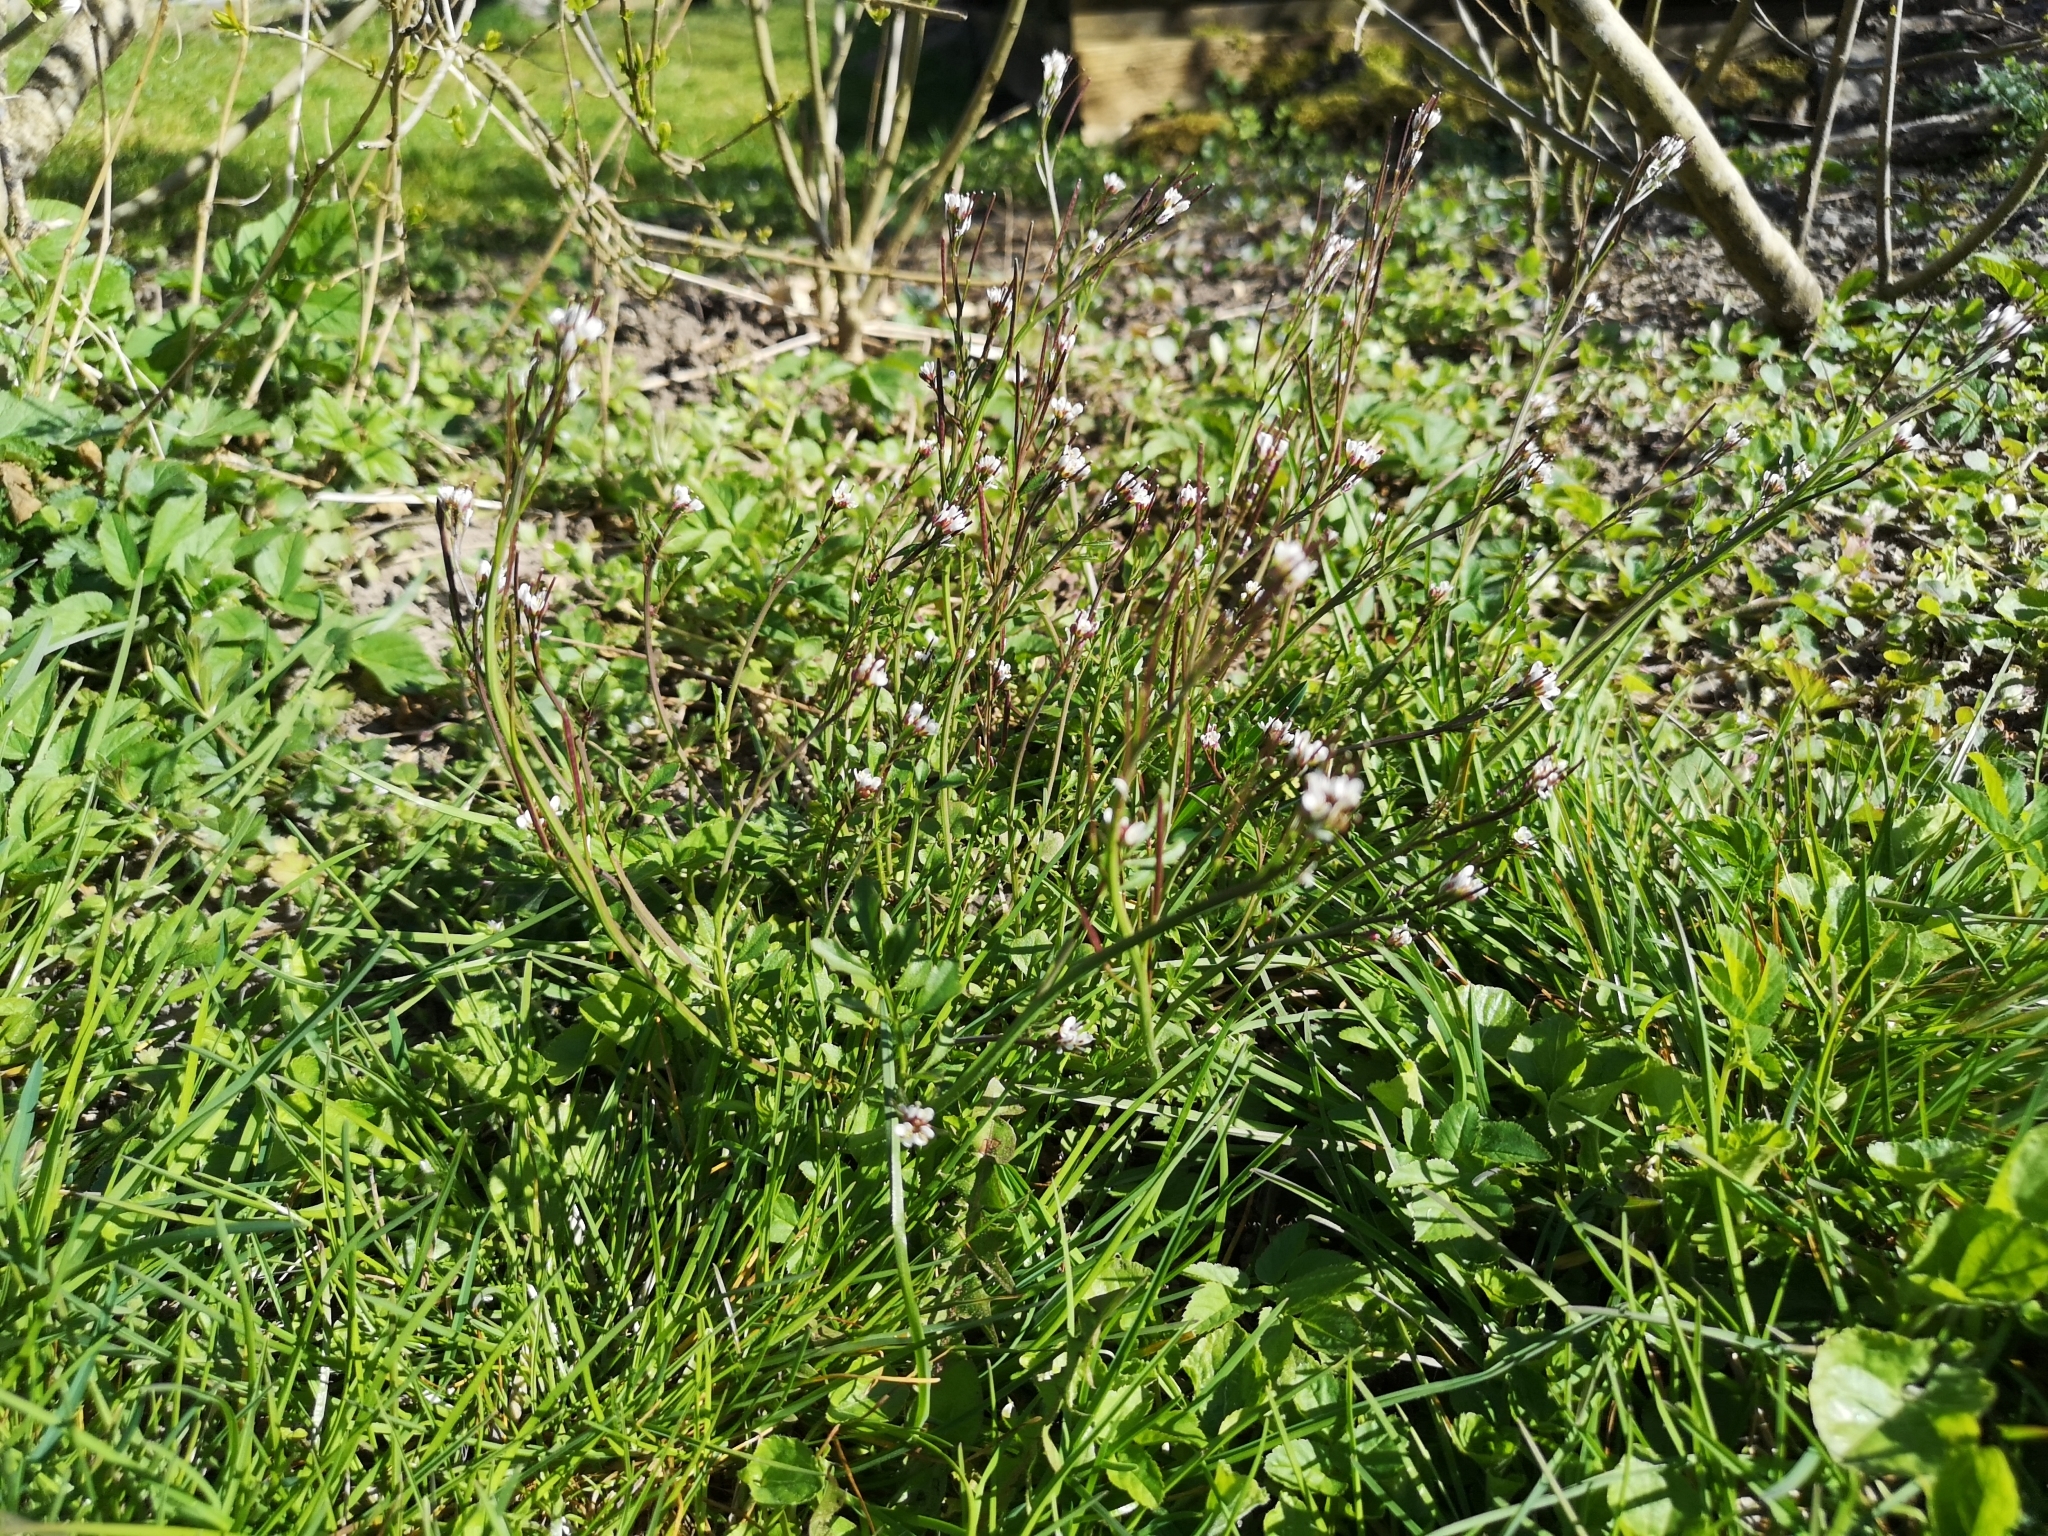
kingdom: Plantae
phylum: Tracheophyta
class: Magnoliopsida
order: Brassicales
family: Brassicaceae
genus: Cardamine
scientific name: Cardamine hirsuta
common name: Hairy bittercress
